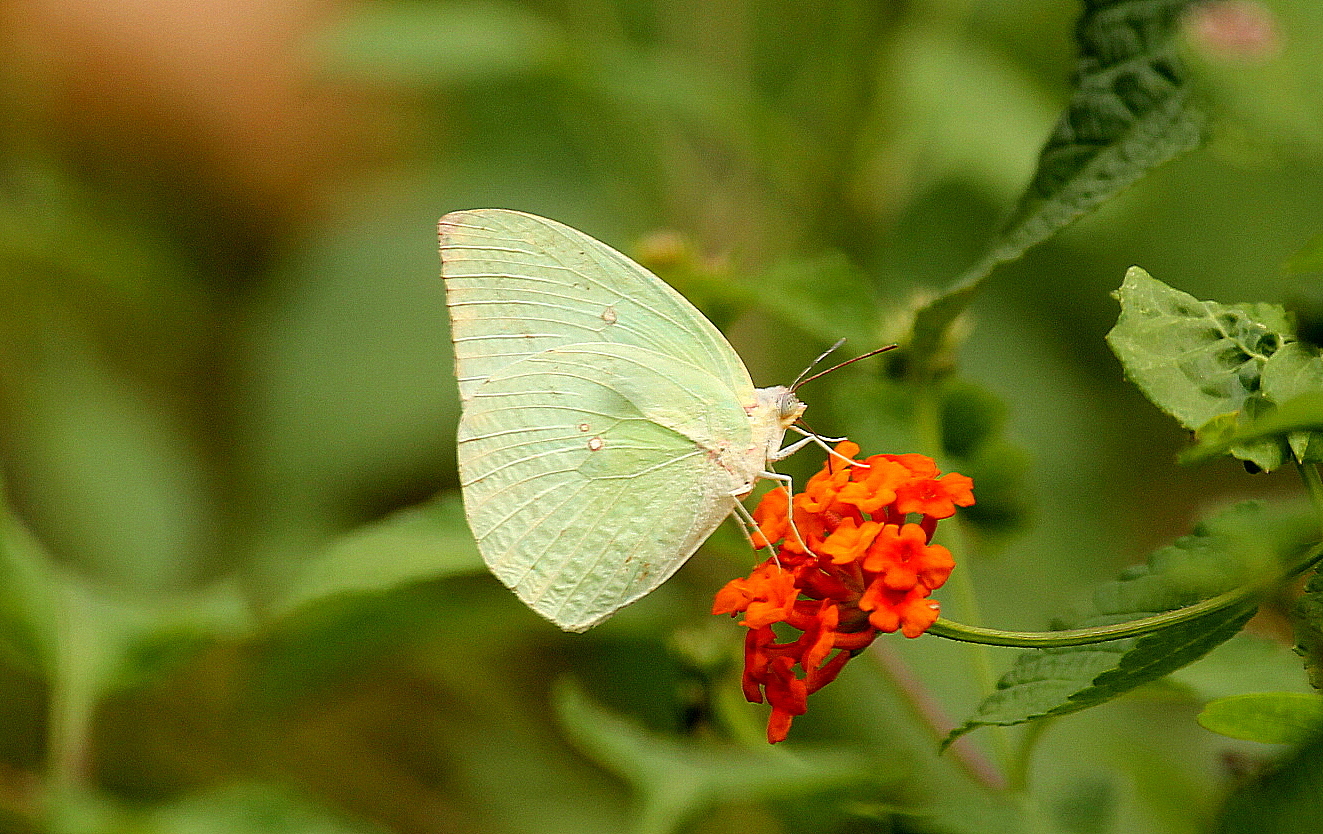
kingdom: Animalia
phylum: Arthropoda
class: Insecta
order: Lepidoptera
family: Pieridae
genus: Catopsilia
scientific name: Catopsilia pomona
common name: Common emigrant
